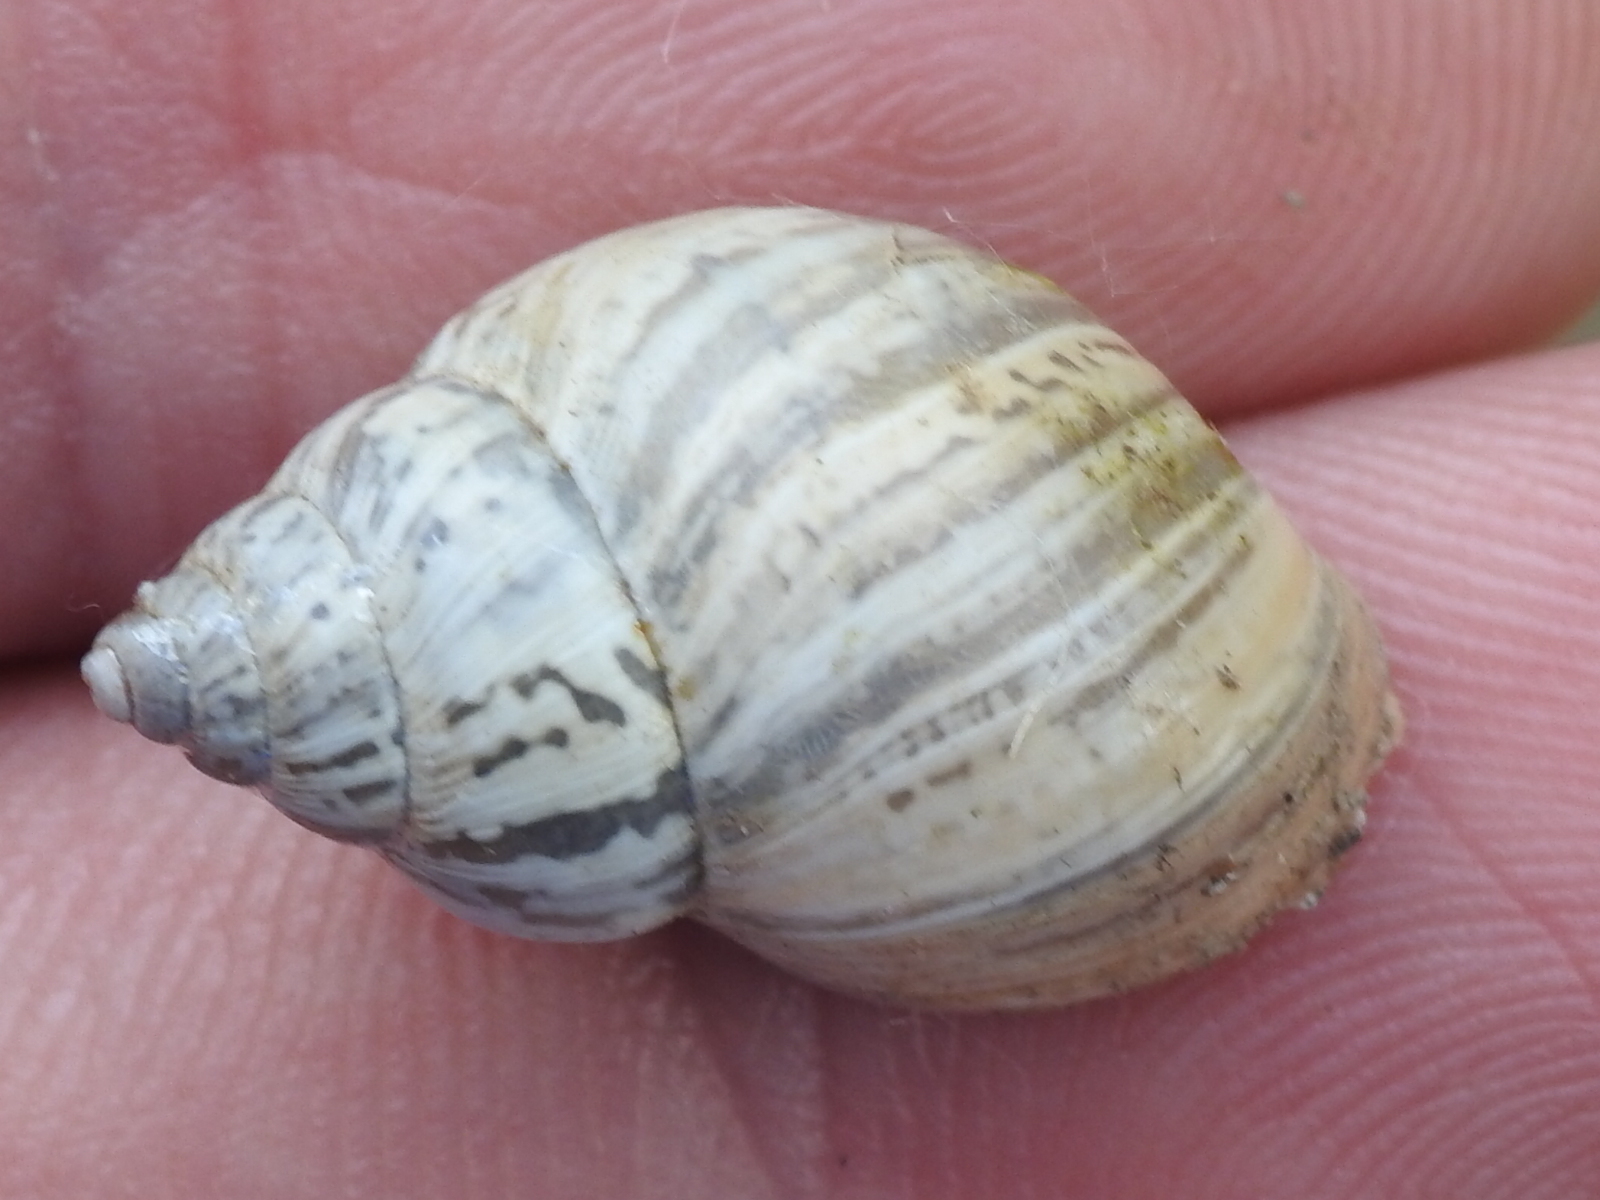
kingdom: Animalia
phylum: Mollusca
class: Gastropoda
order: Stylommatophora
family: Bulimulidae
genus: Rabdotus
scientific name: Rabdotus dealbatus
